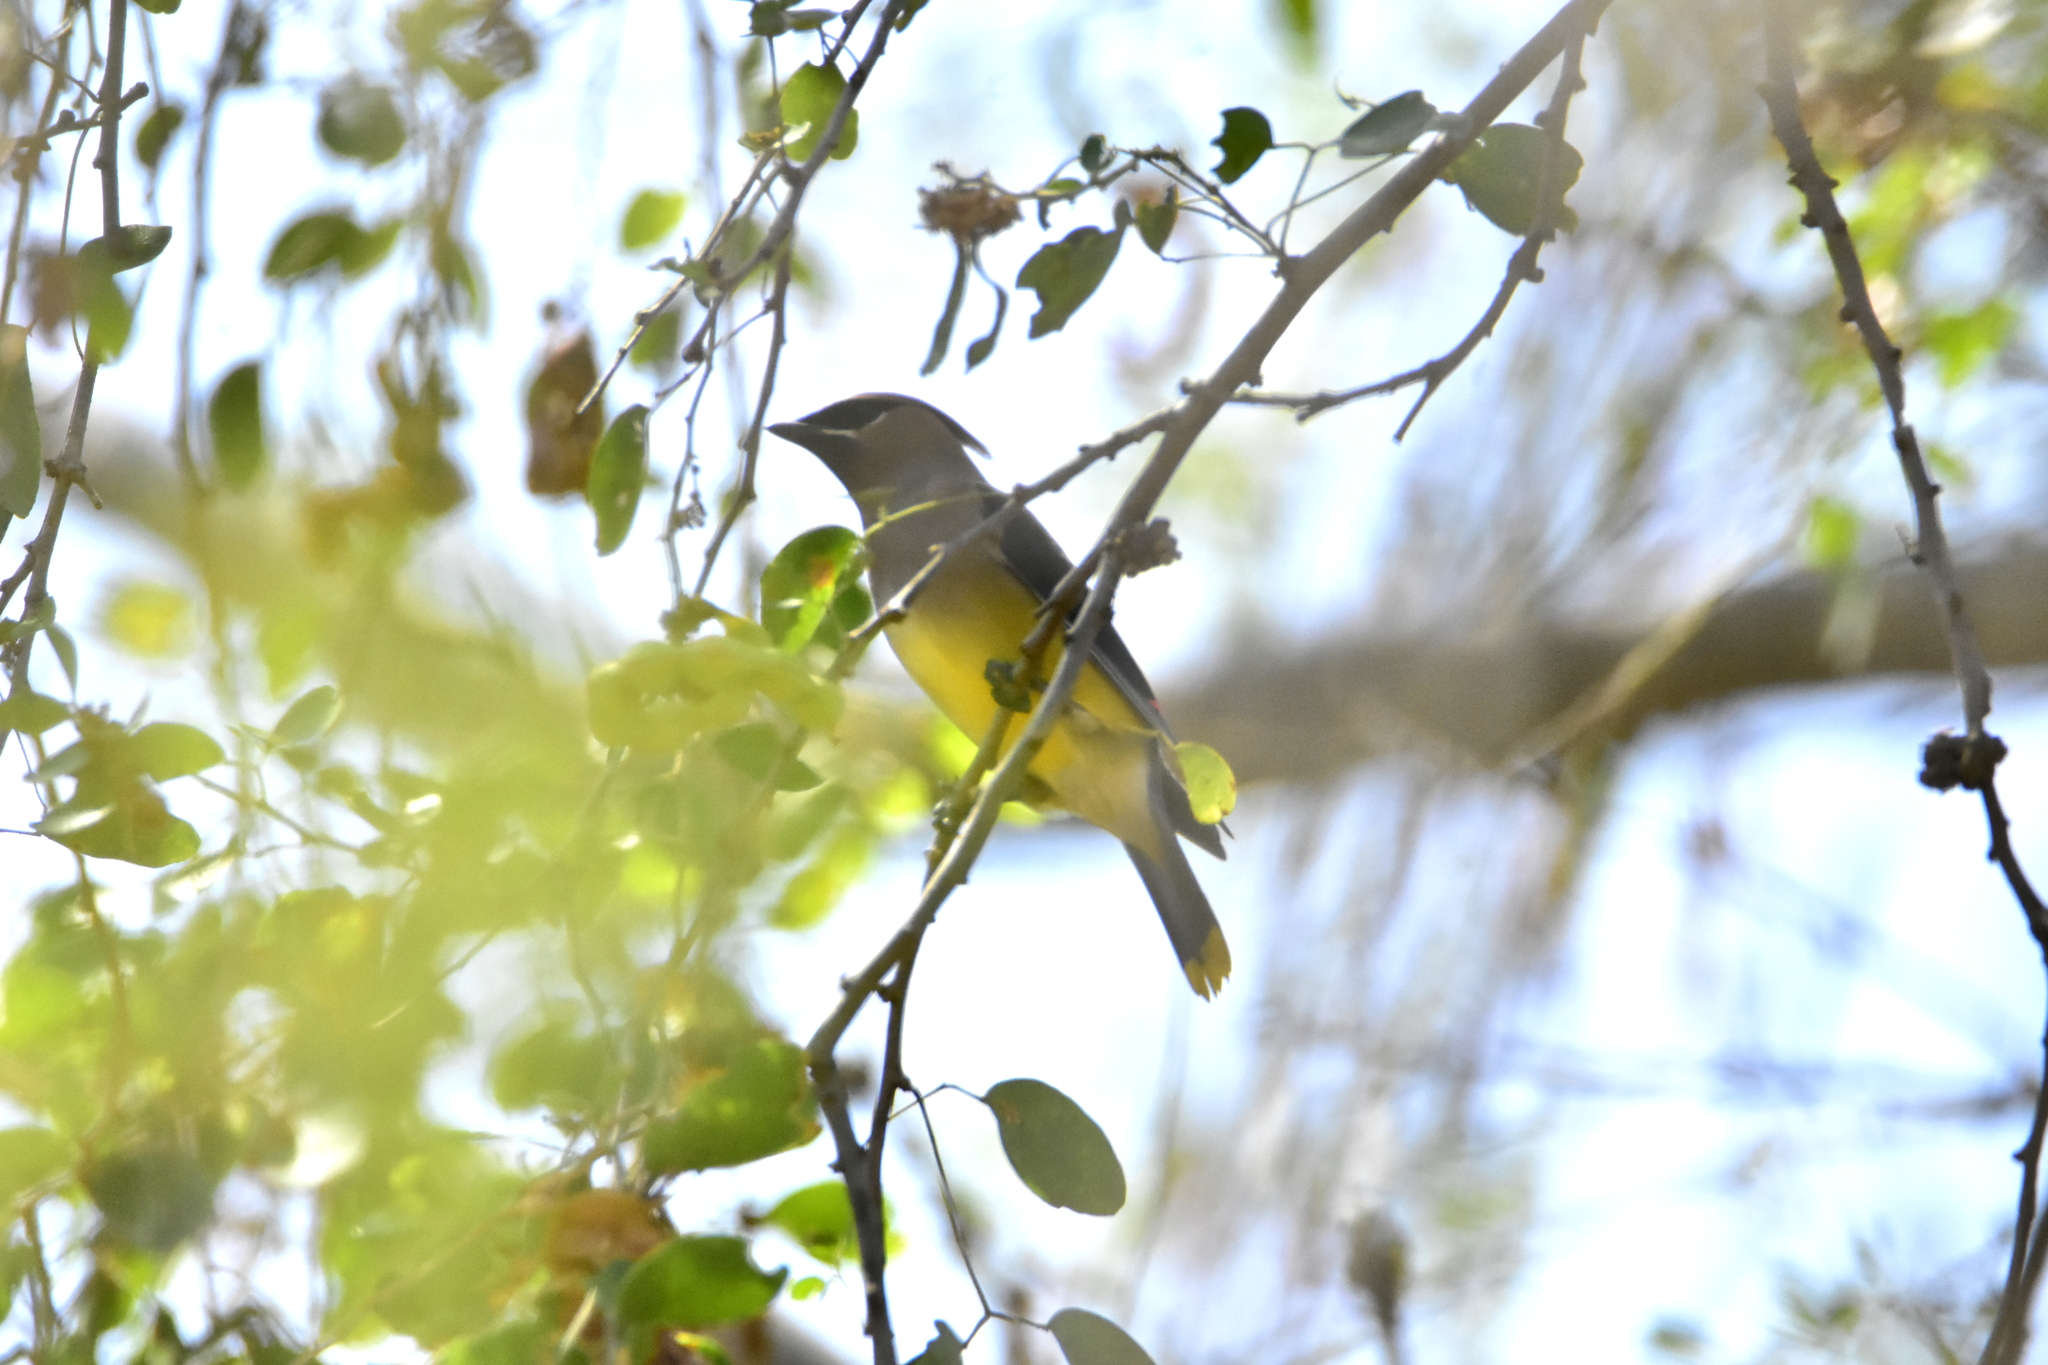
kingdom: Animalia
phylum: Chordata
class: Aves
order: Passeriformes
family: Bombycillidae
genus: Bombycilla
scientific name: Bombycilla cedrorum
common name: Cedar waxwing
